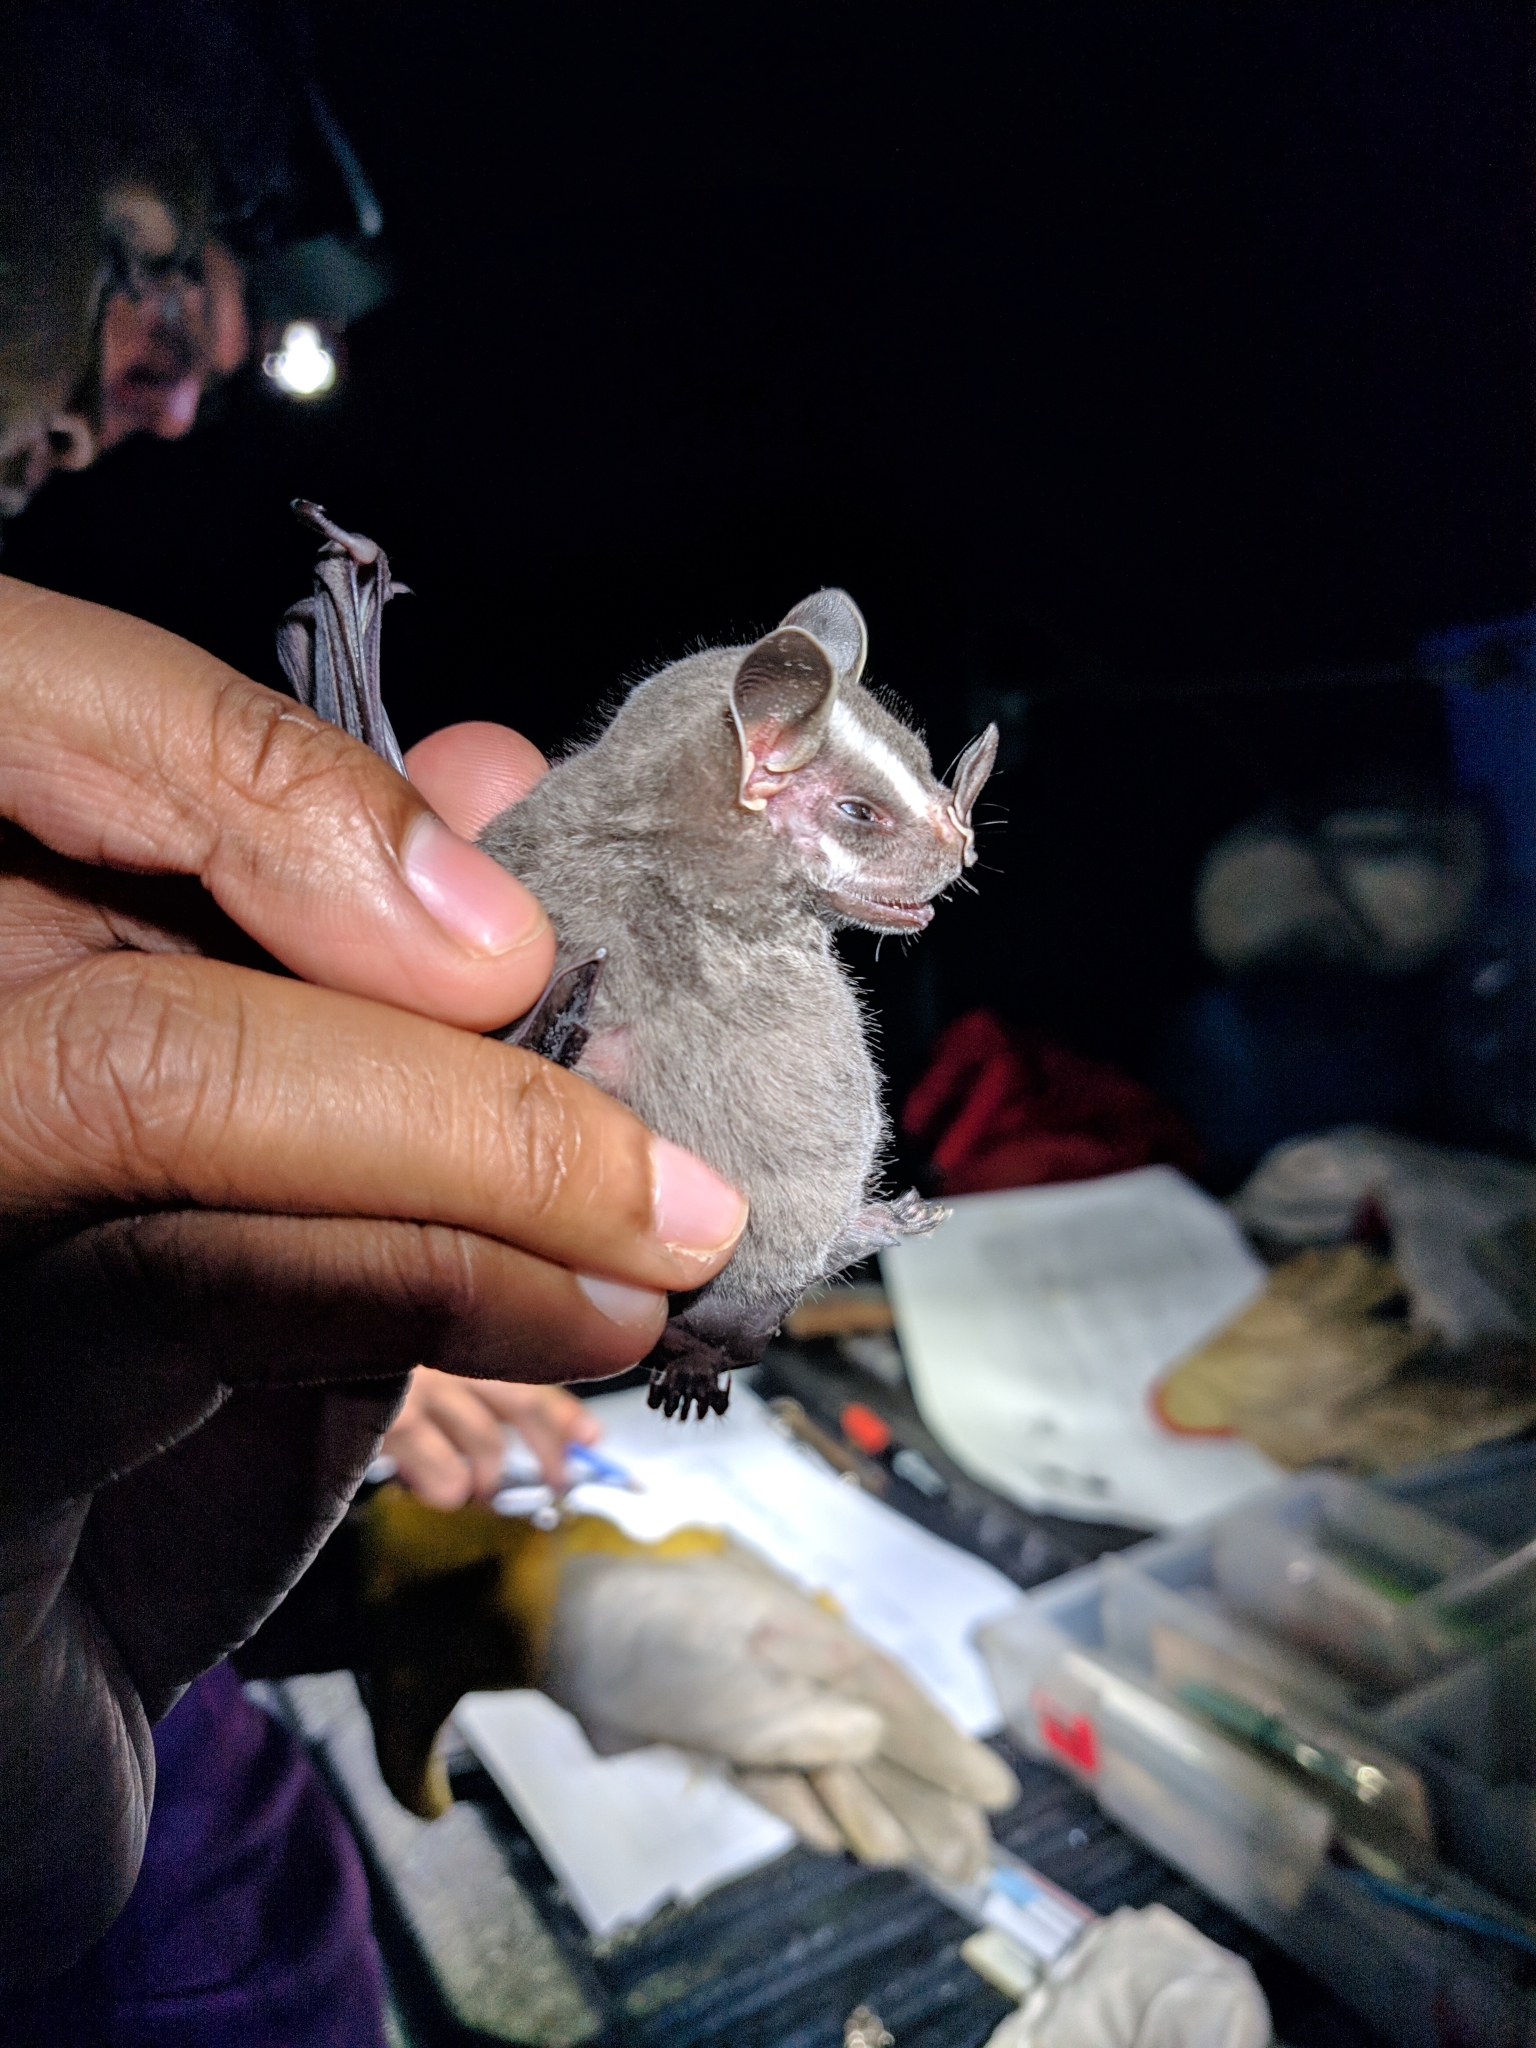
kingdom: Animalia
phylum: Chordata
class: Mammalia
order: Chiroptera
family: Phyllostomidae
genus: Uroderma
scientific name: Uroderma bilobatum
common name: Common tent-making bat
